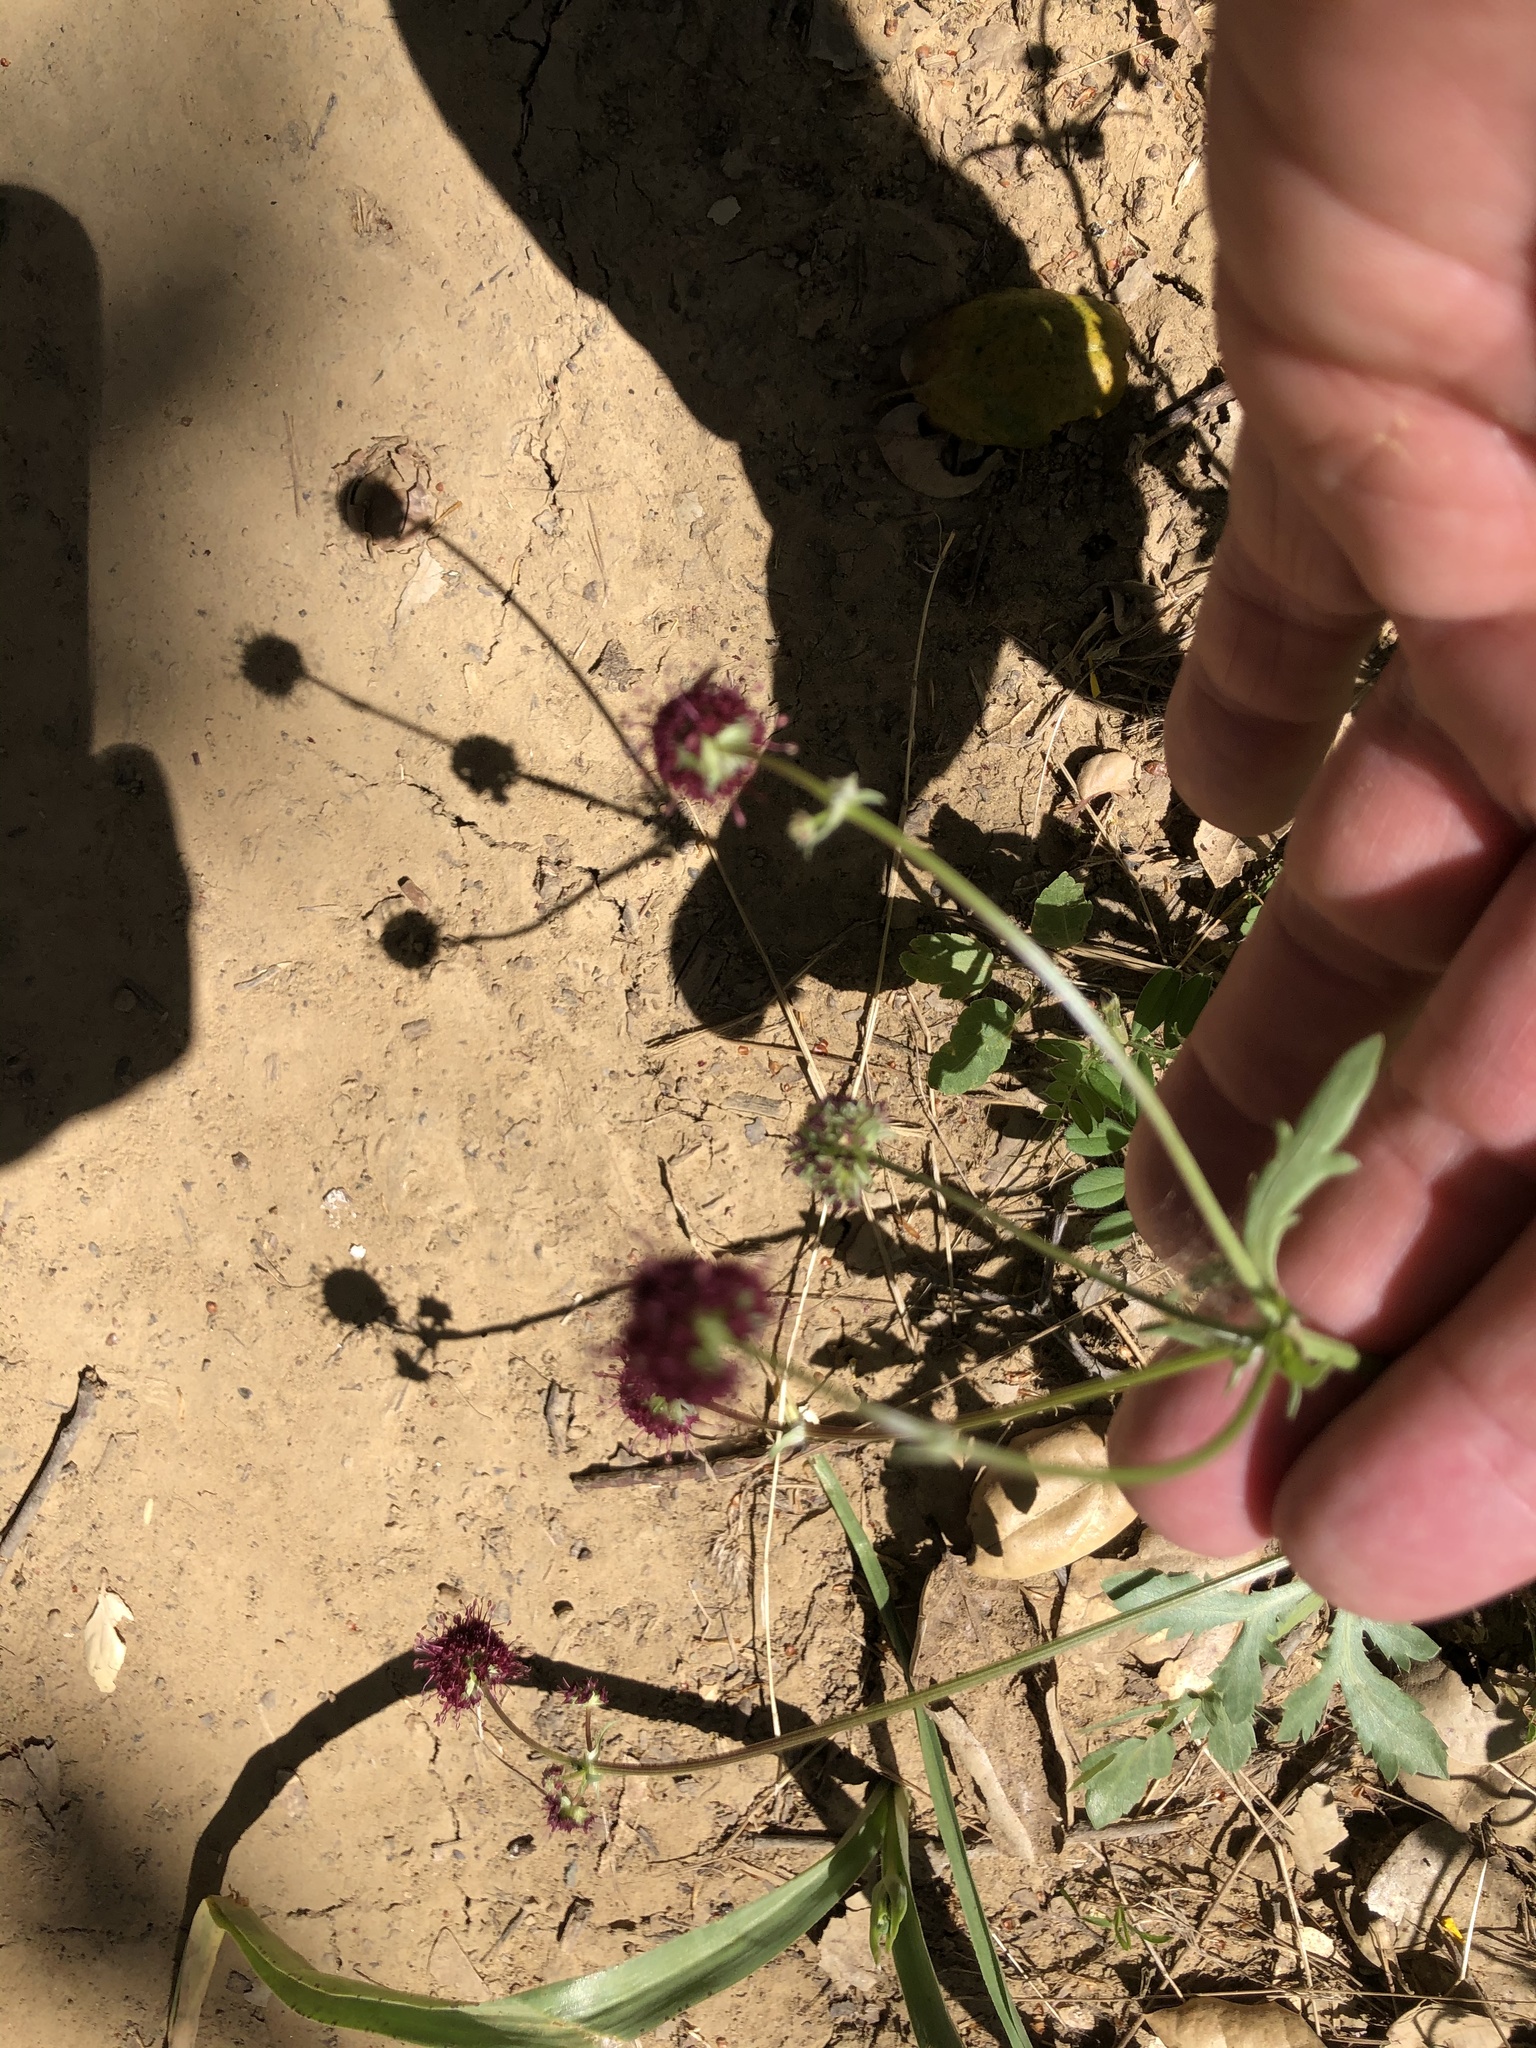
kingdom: Plantae
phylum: Tracheophyta
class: Magnoliopsida
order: Apiales
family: Apiaceae
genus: Sanicula
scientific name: Sanicula bipinnatifida
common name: Shoe-buttons
